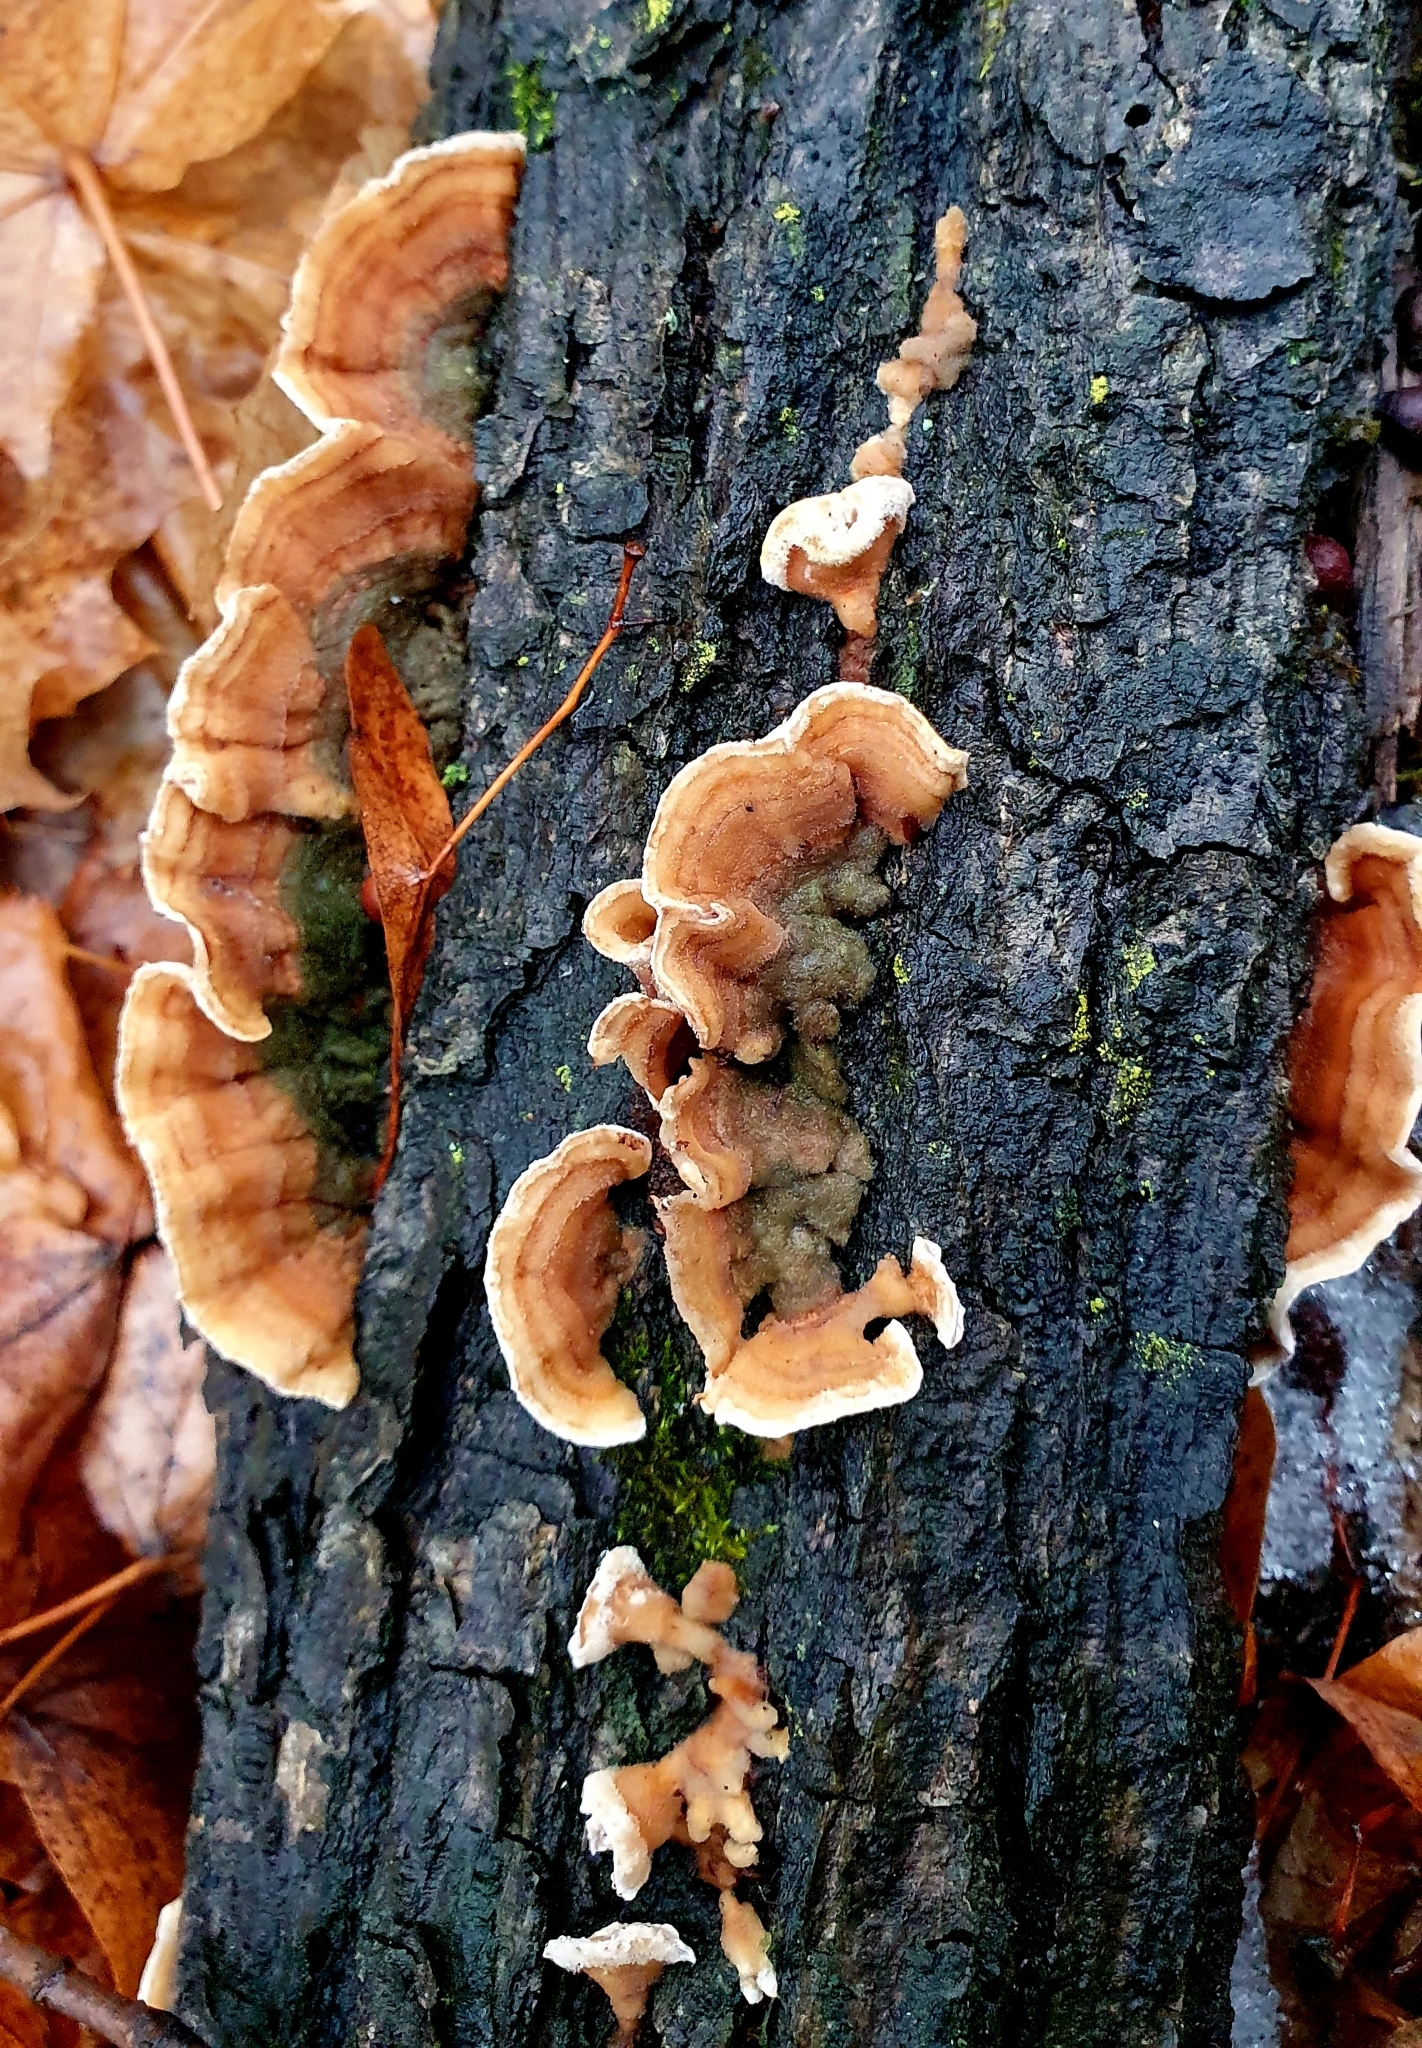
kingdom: Fungi
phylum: Basidiomycota
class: Agaricomycetes
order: Russulales
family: Stereaceae
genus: Stereum
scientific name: Stereum hirsutum
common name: Hairy curtain crust
